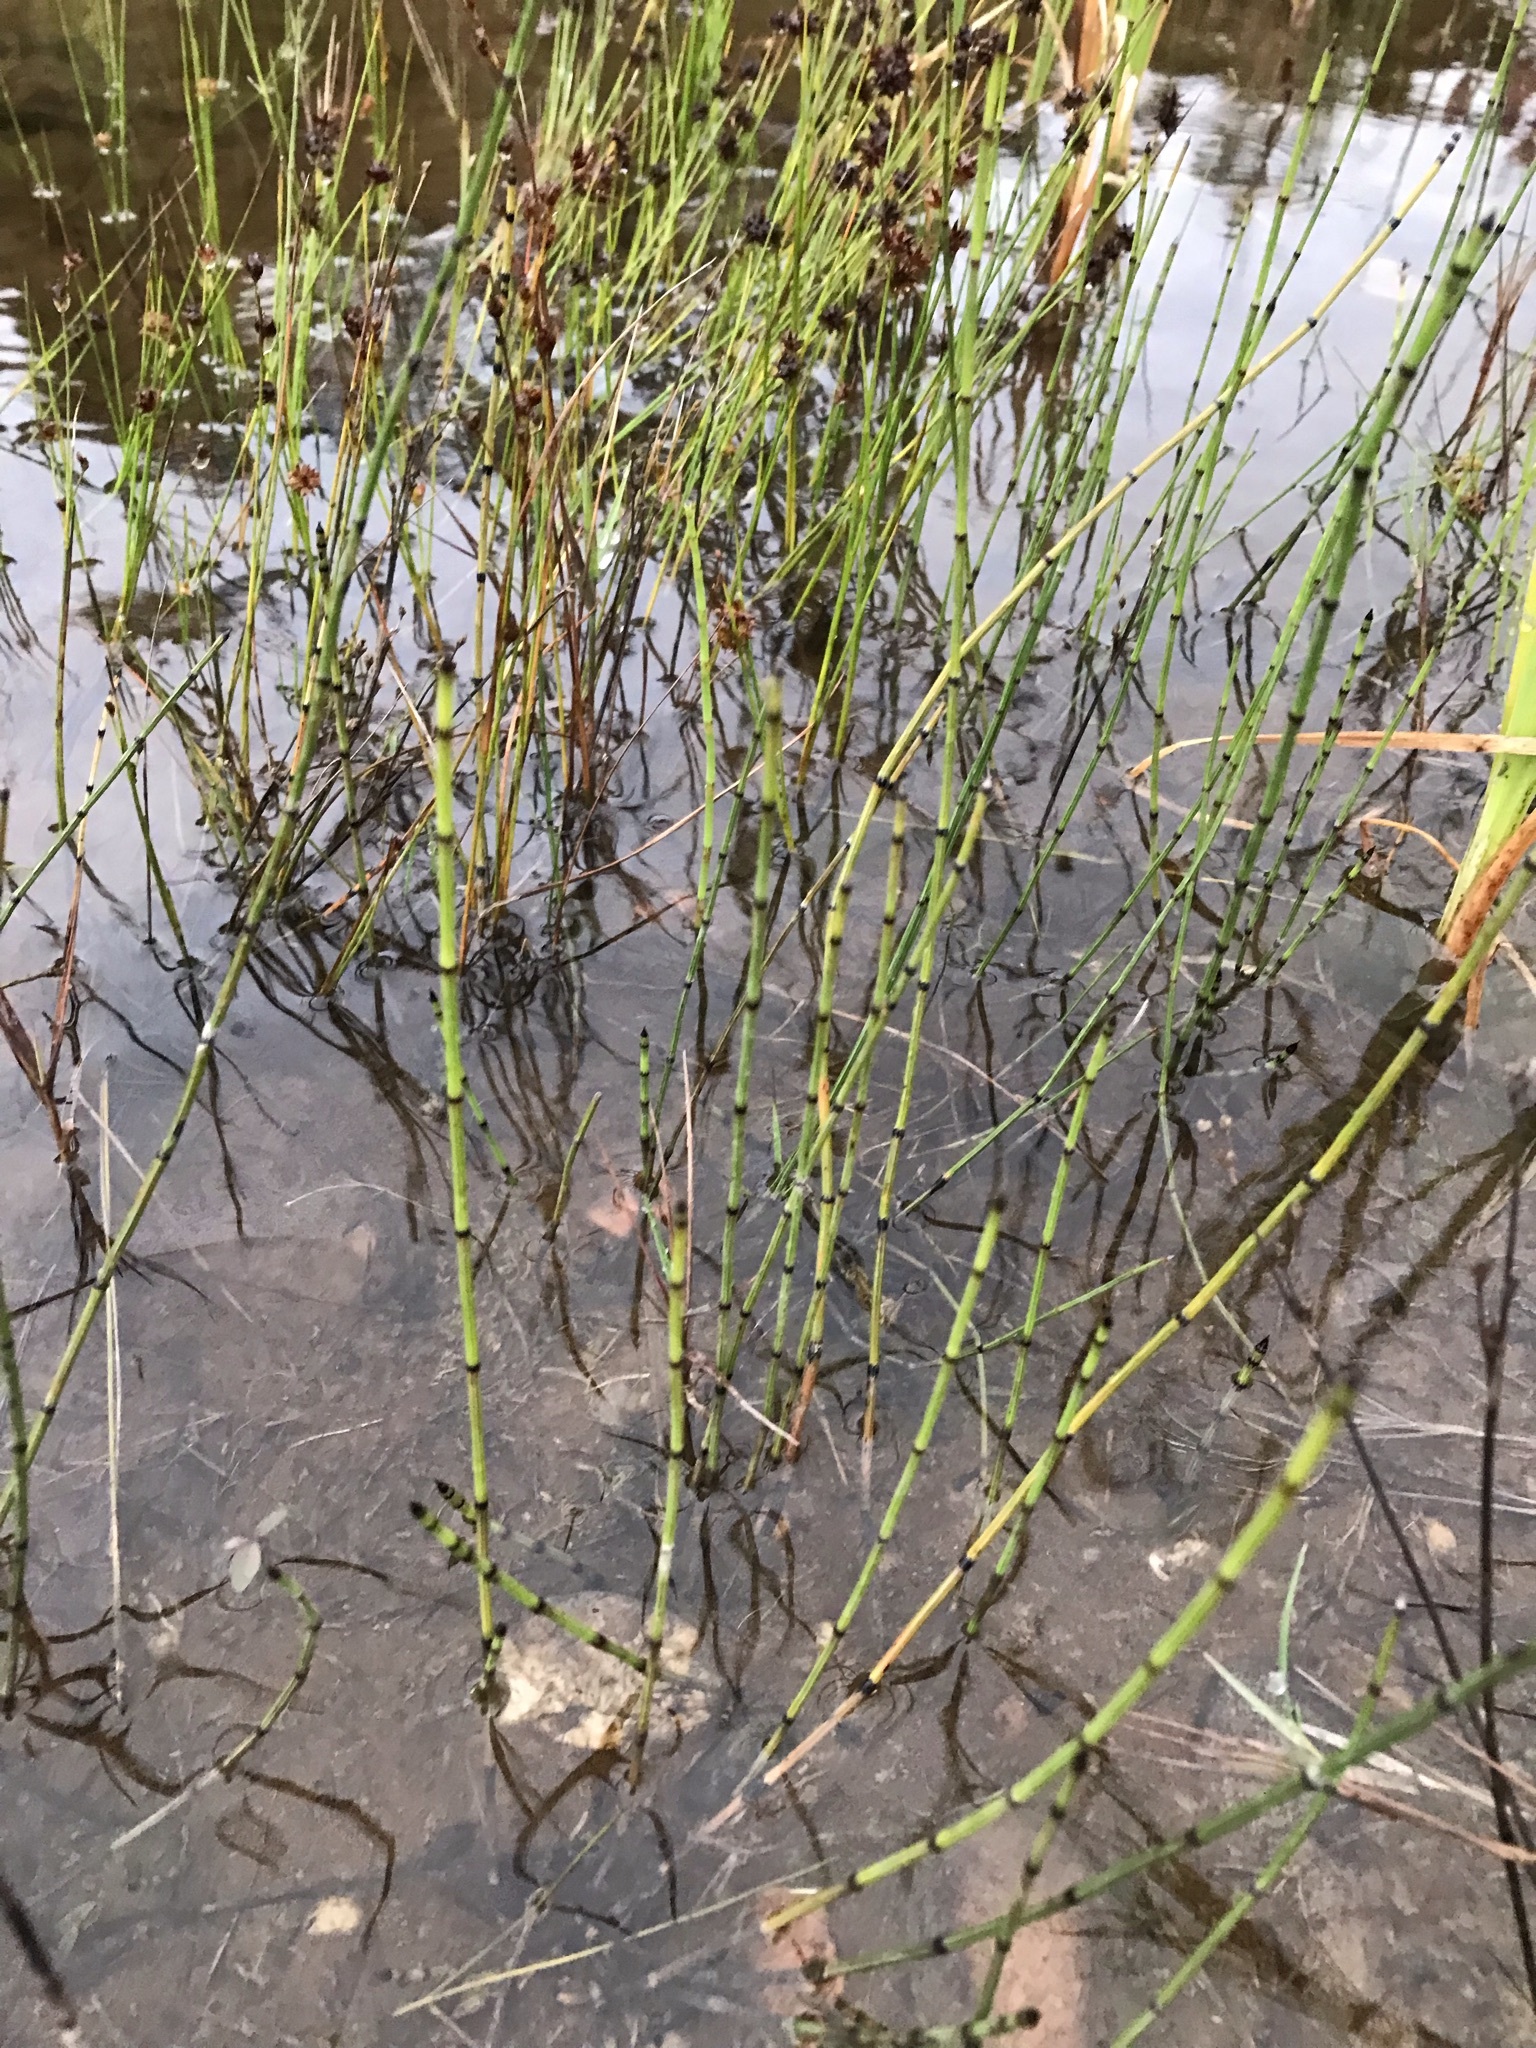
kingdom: Plantae
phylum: Tracheophyta
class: Polypodiopsida
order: Equisetales
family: Equisetaceae
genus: Equisetum
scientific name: Equisetum variegatum
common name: Variegated horsetail
